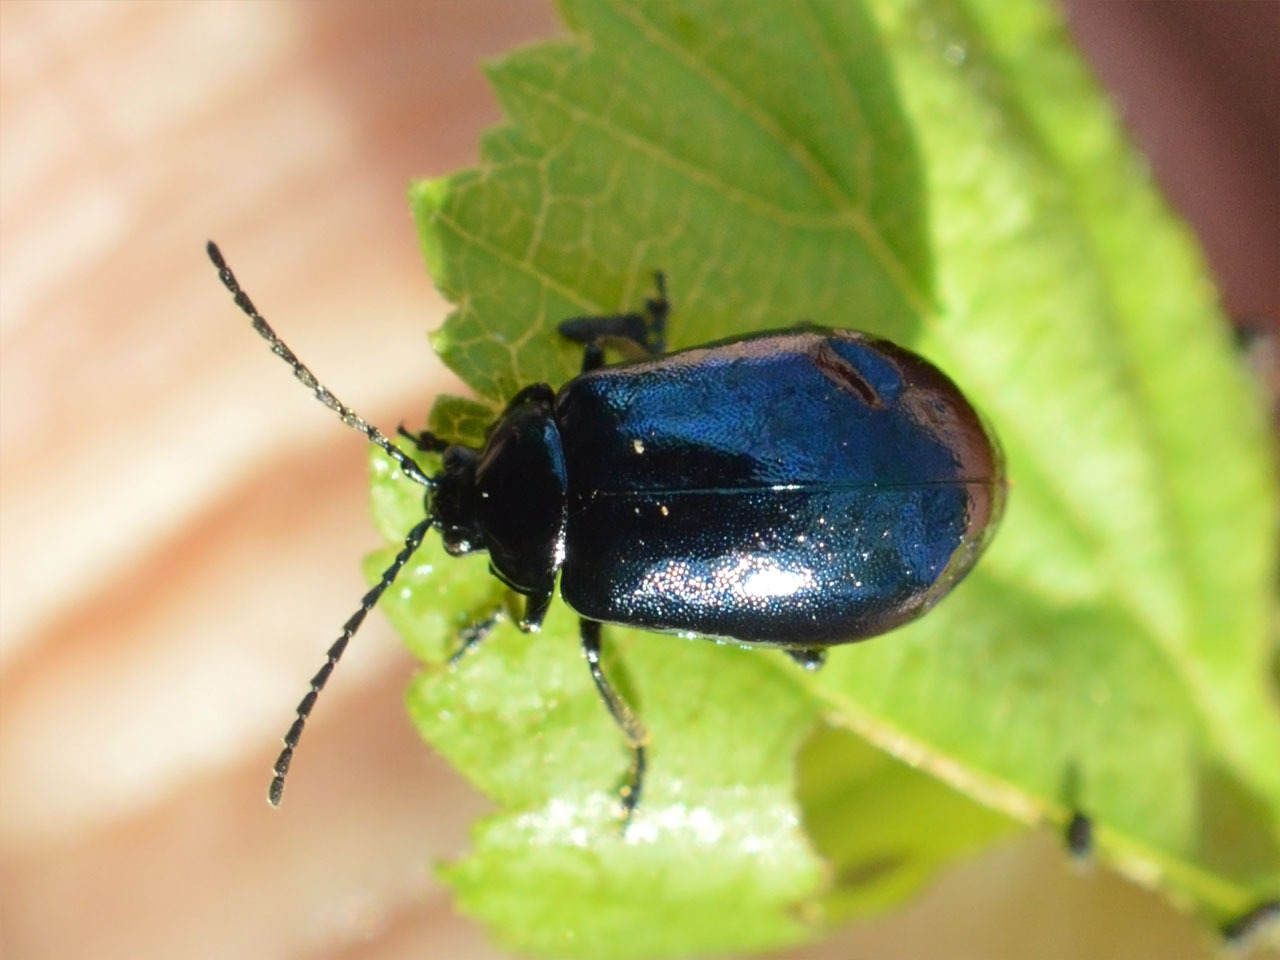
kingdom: Animalia
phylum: Arthropoda
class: Insecta
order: Coleoptera
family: Chrysomelidae
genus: Agelastica
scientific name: Agelastica alni
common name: Alder leaf beetle
